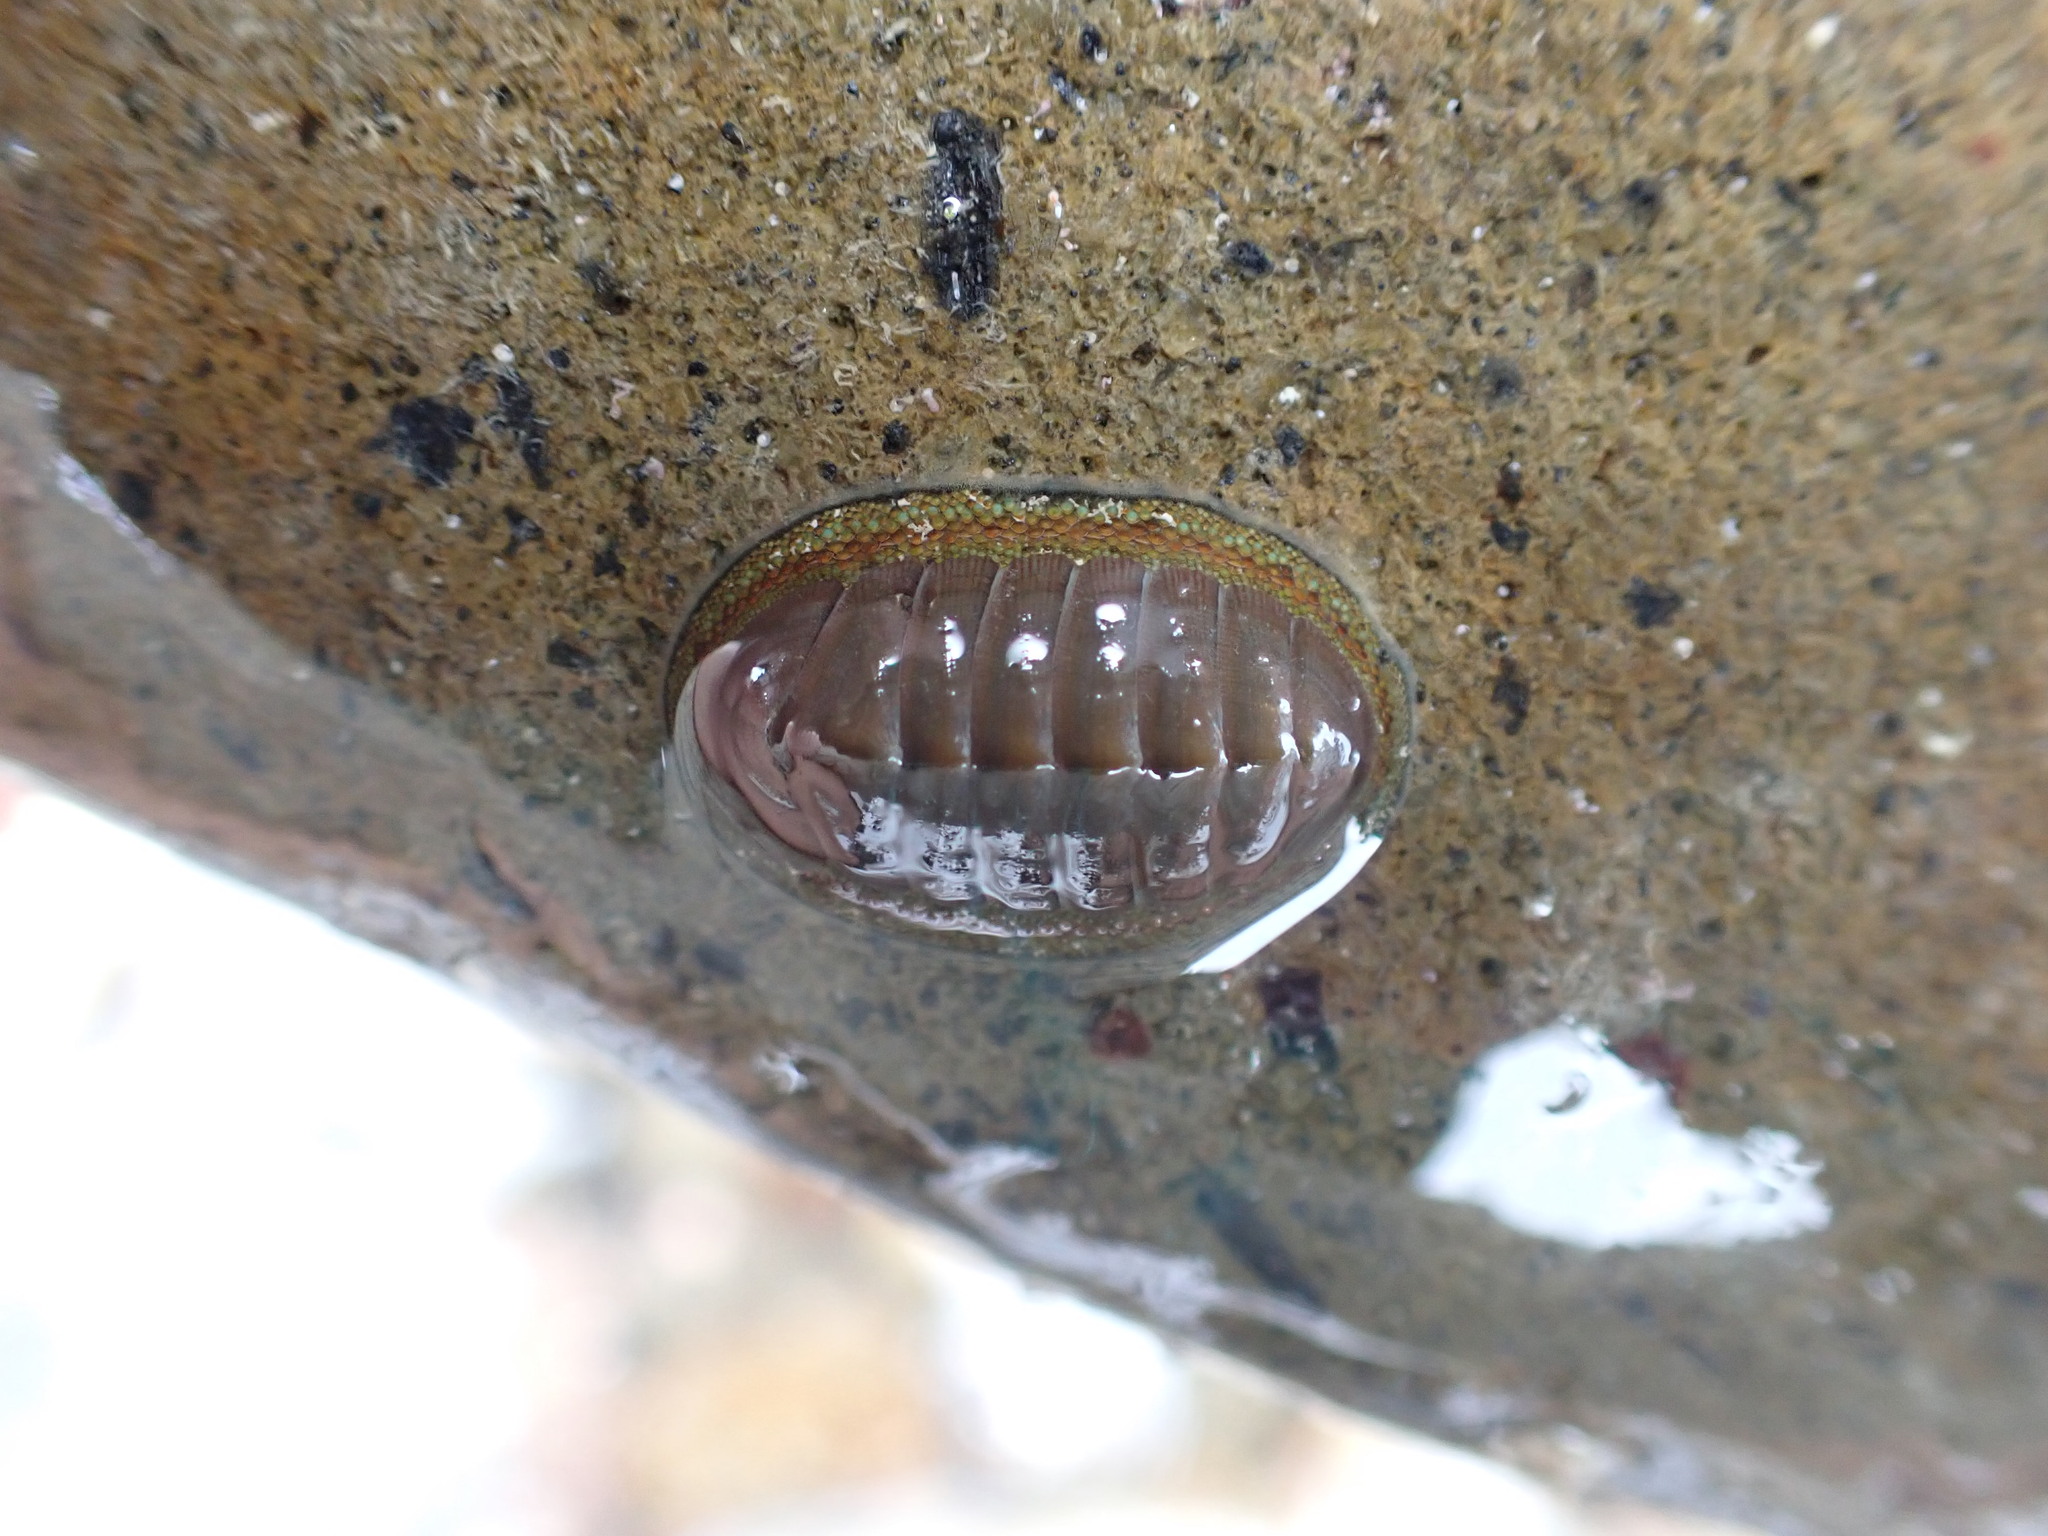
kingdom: Animalia
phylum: Mollusca
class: Polyplacophora
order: Chitonida
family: Chitonidae
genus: Chiton
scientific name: Chiton glaucus
